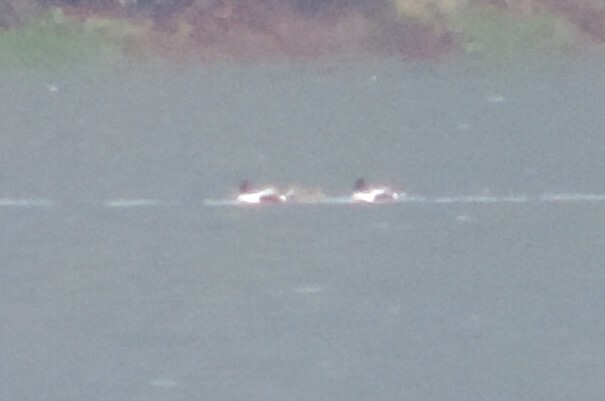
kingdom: Animalia
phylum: Chordata
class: Aves
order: Anseriformes
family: Anatidae
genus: Spatula
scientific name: Spatula clypeata
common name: Northern shoveler
